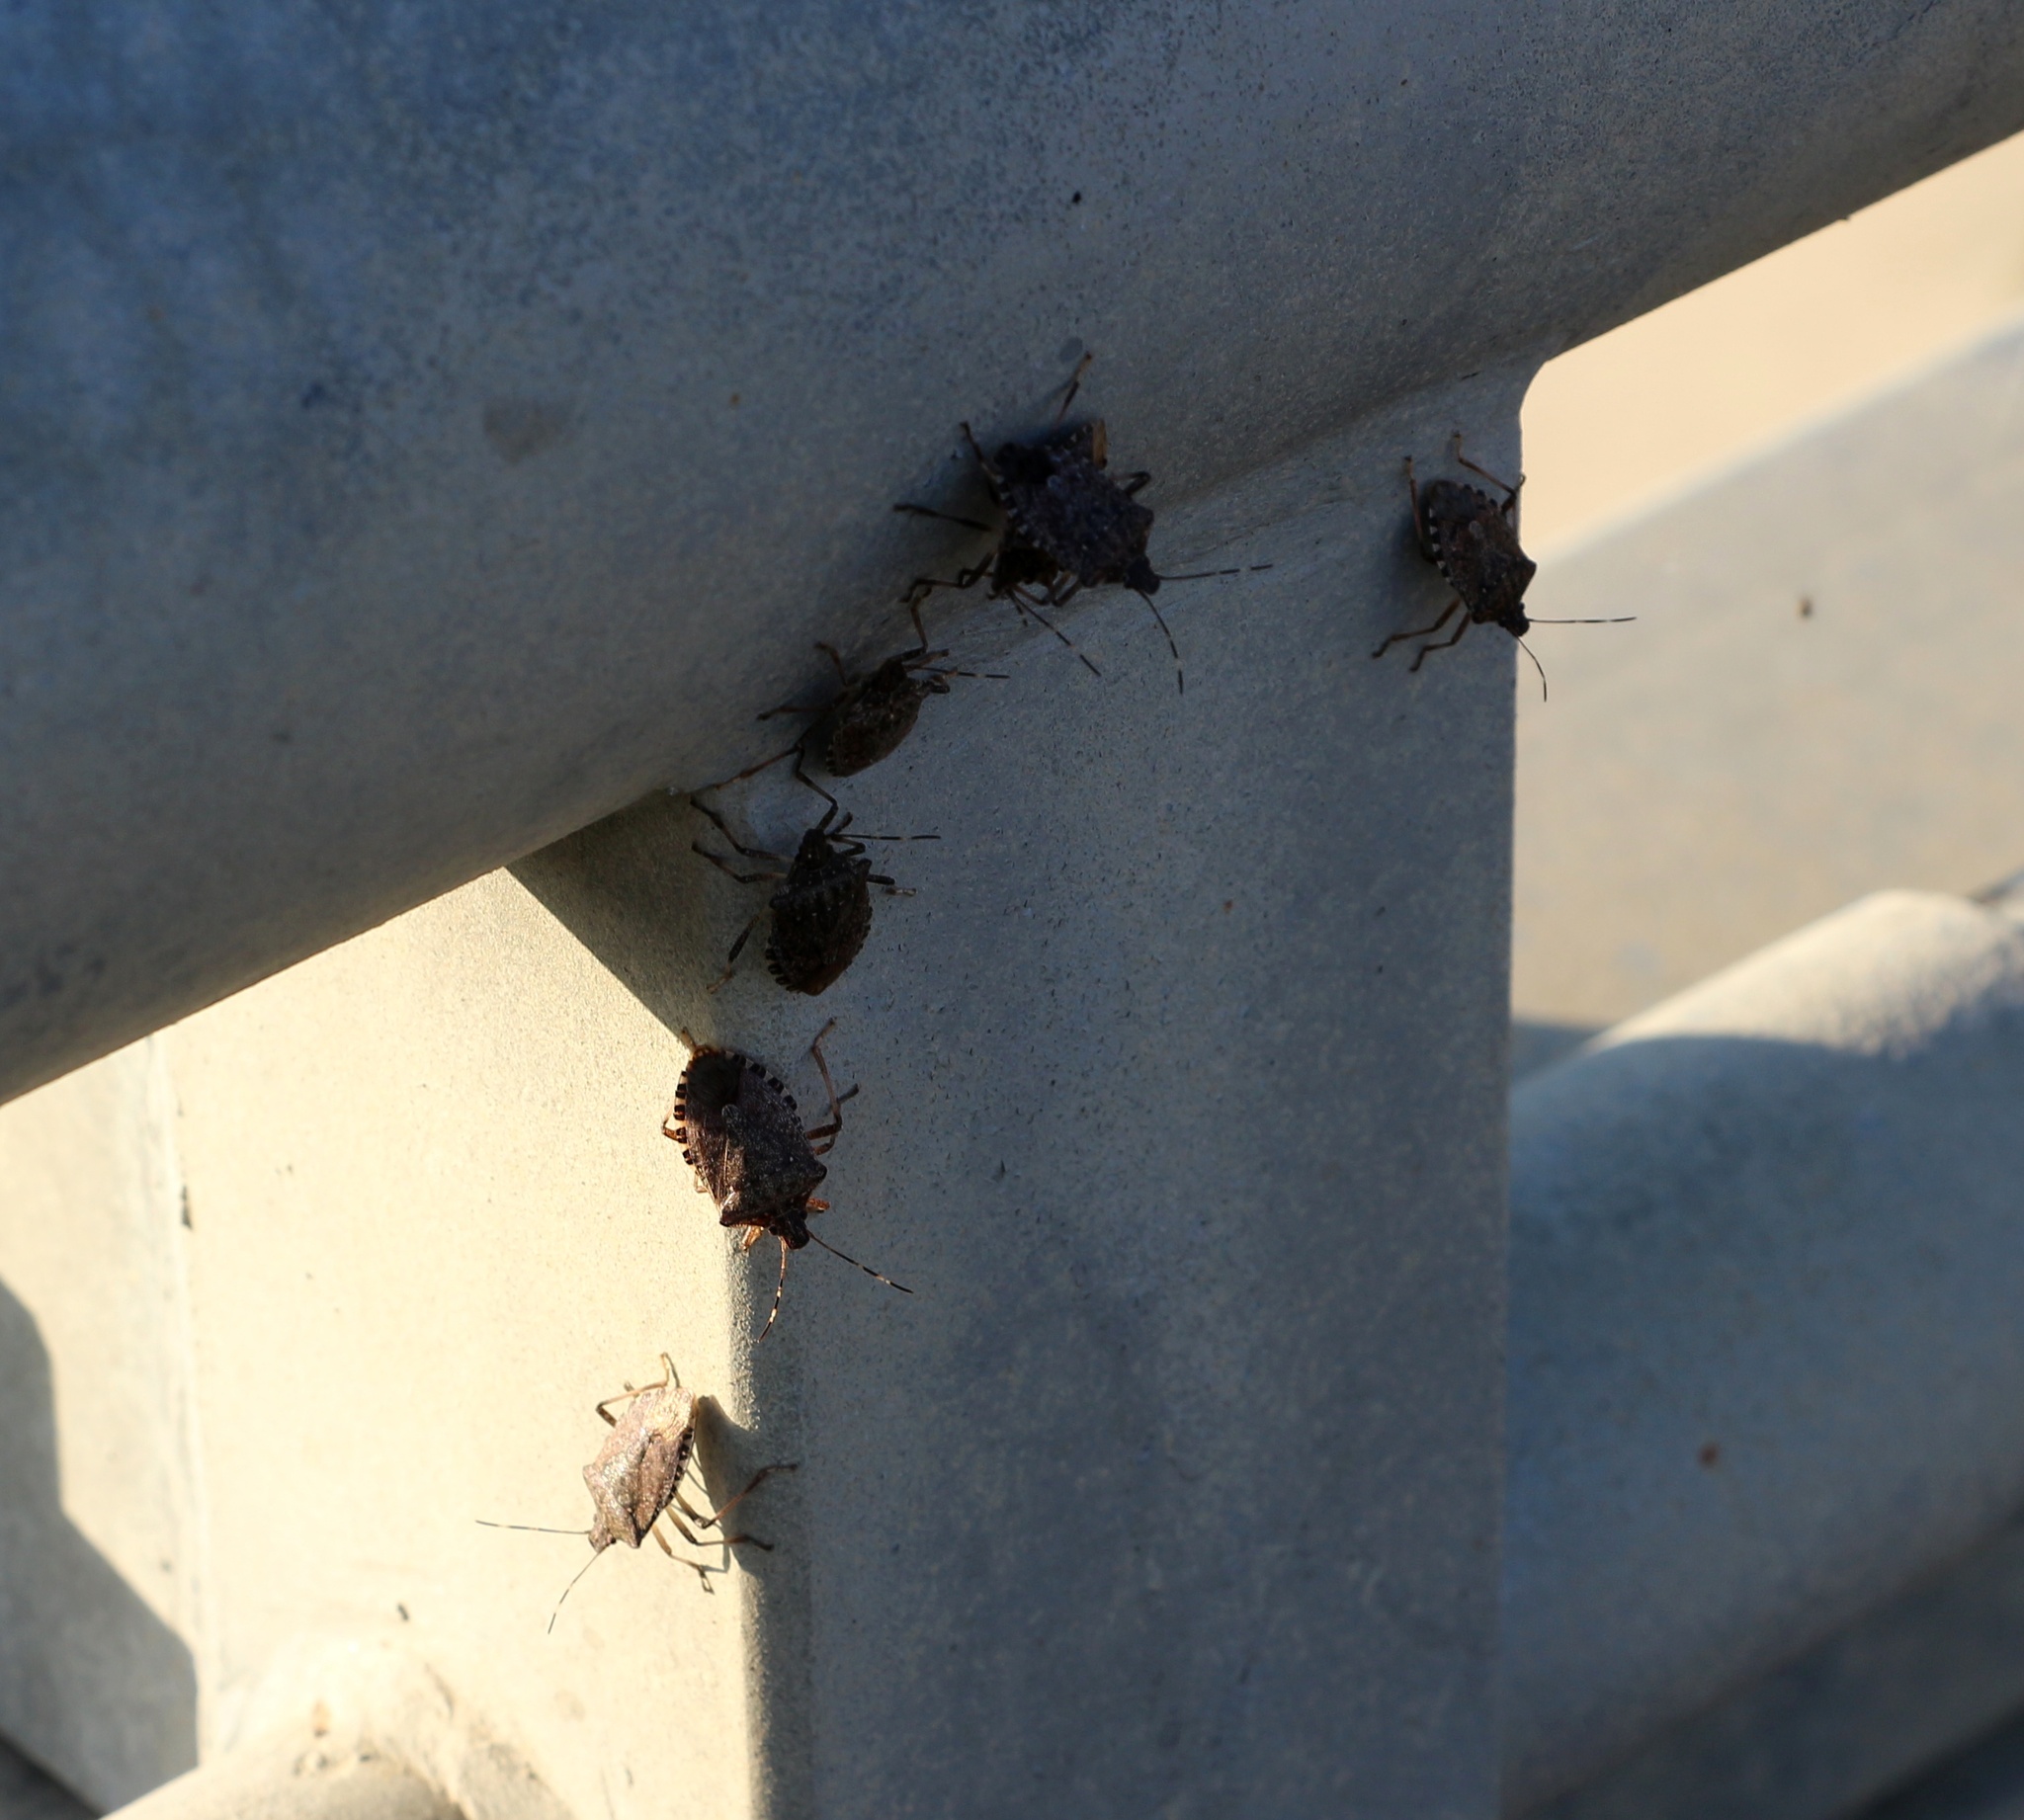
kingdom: Animalia
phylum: Arthropoda
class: Insecta
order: Hemiptera
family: Pentatomidae
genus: Halyomorpha
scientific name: Halyomorpha halys
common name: Brown marmorated stink bug
